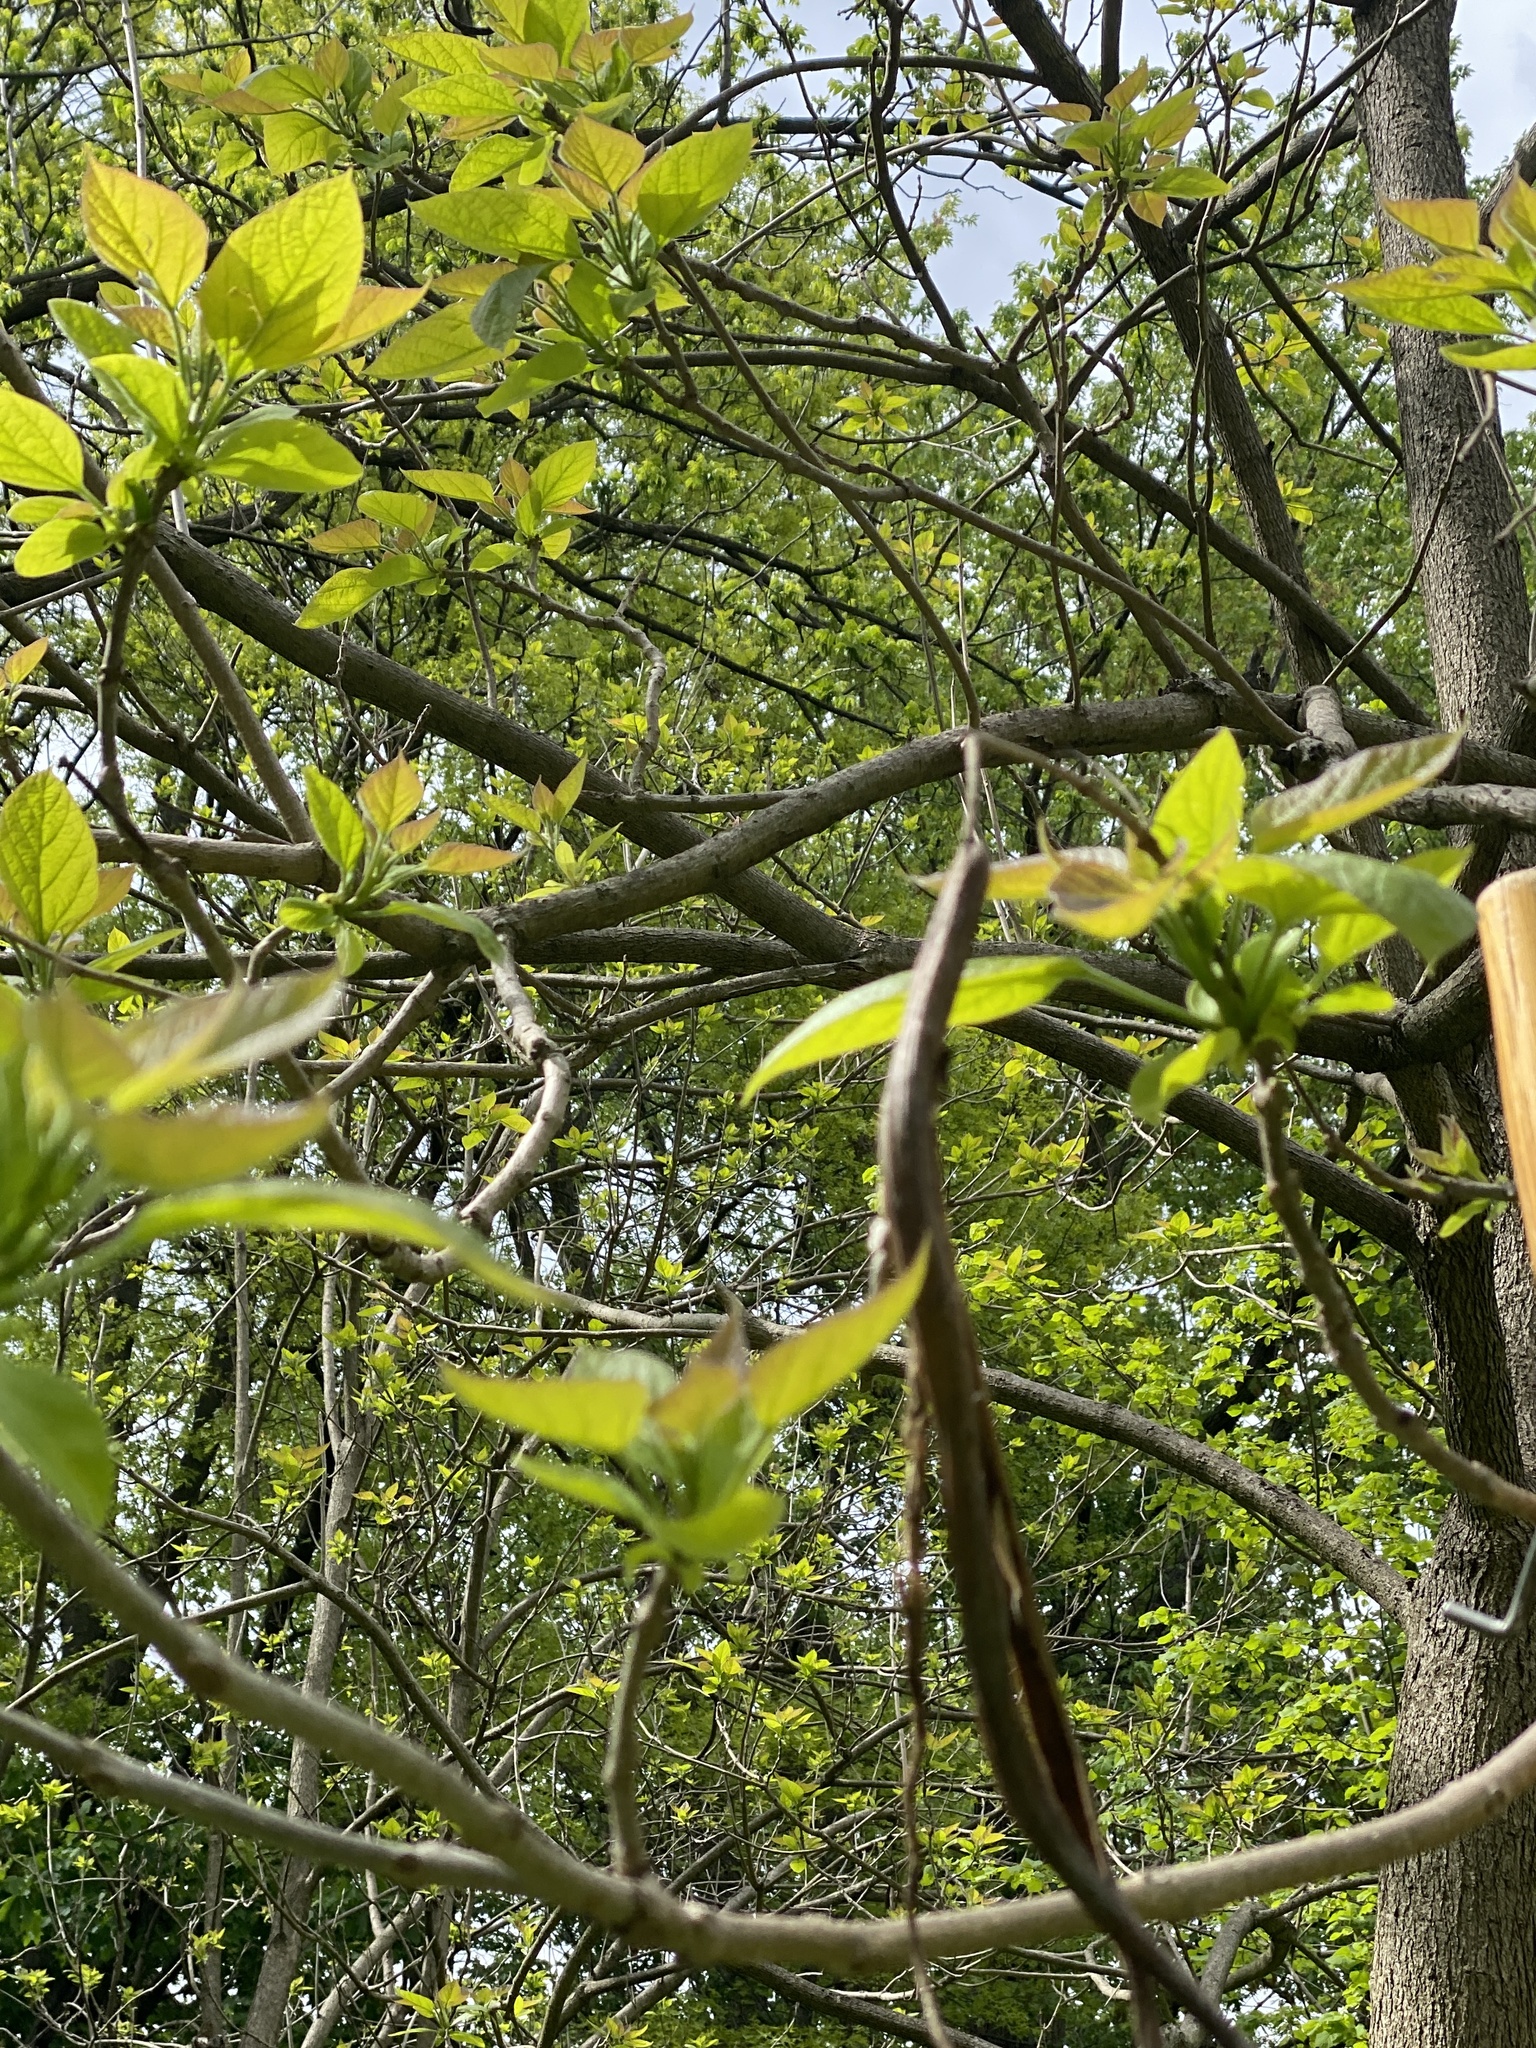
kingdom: Plantae
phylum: Tracheophyta
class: Magnoliopsida
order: Lamiales
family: Bignoniaceae
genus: Catalpa
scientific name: Catalpa bignonioides
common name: Southern catalpa
